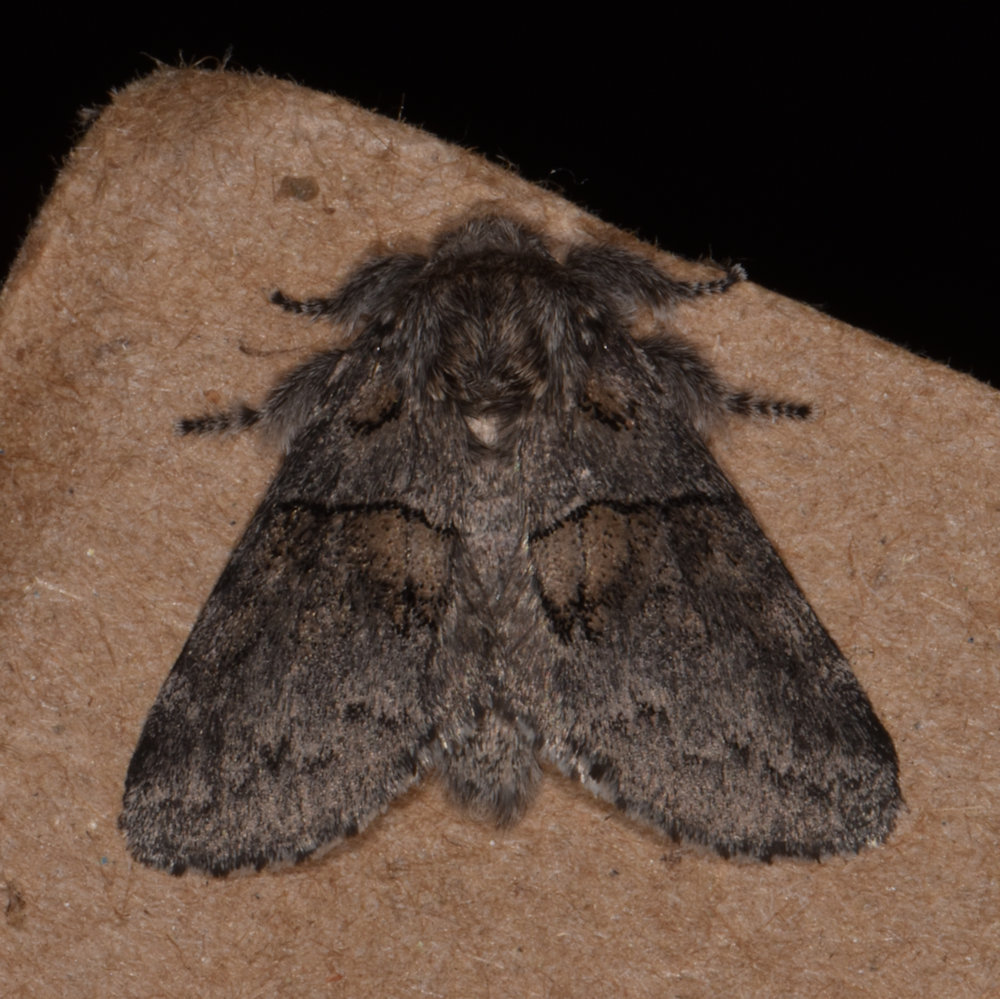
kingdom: Animalia
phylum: Arthropoda
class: Insecta
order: Lepidoptera
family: Notodontidae
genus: Gluphisia
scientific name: Gluphisia septentrionis
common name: Common gluphisia
